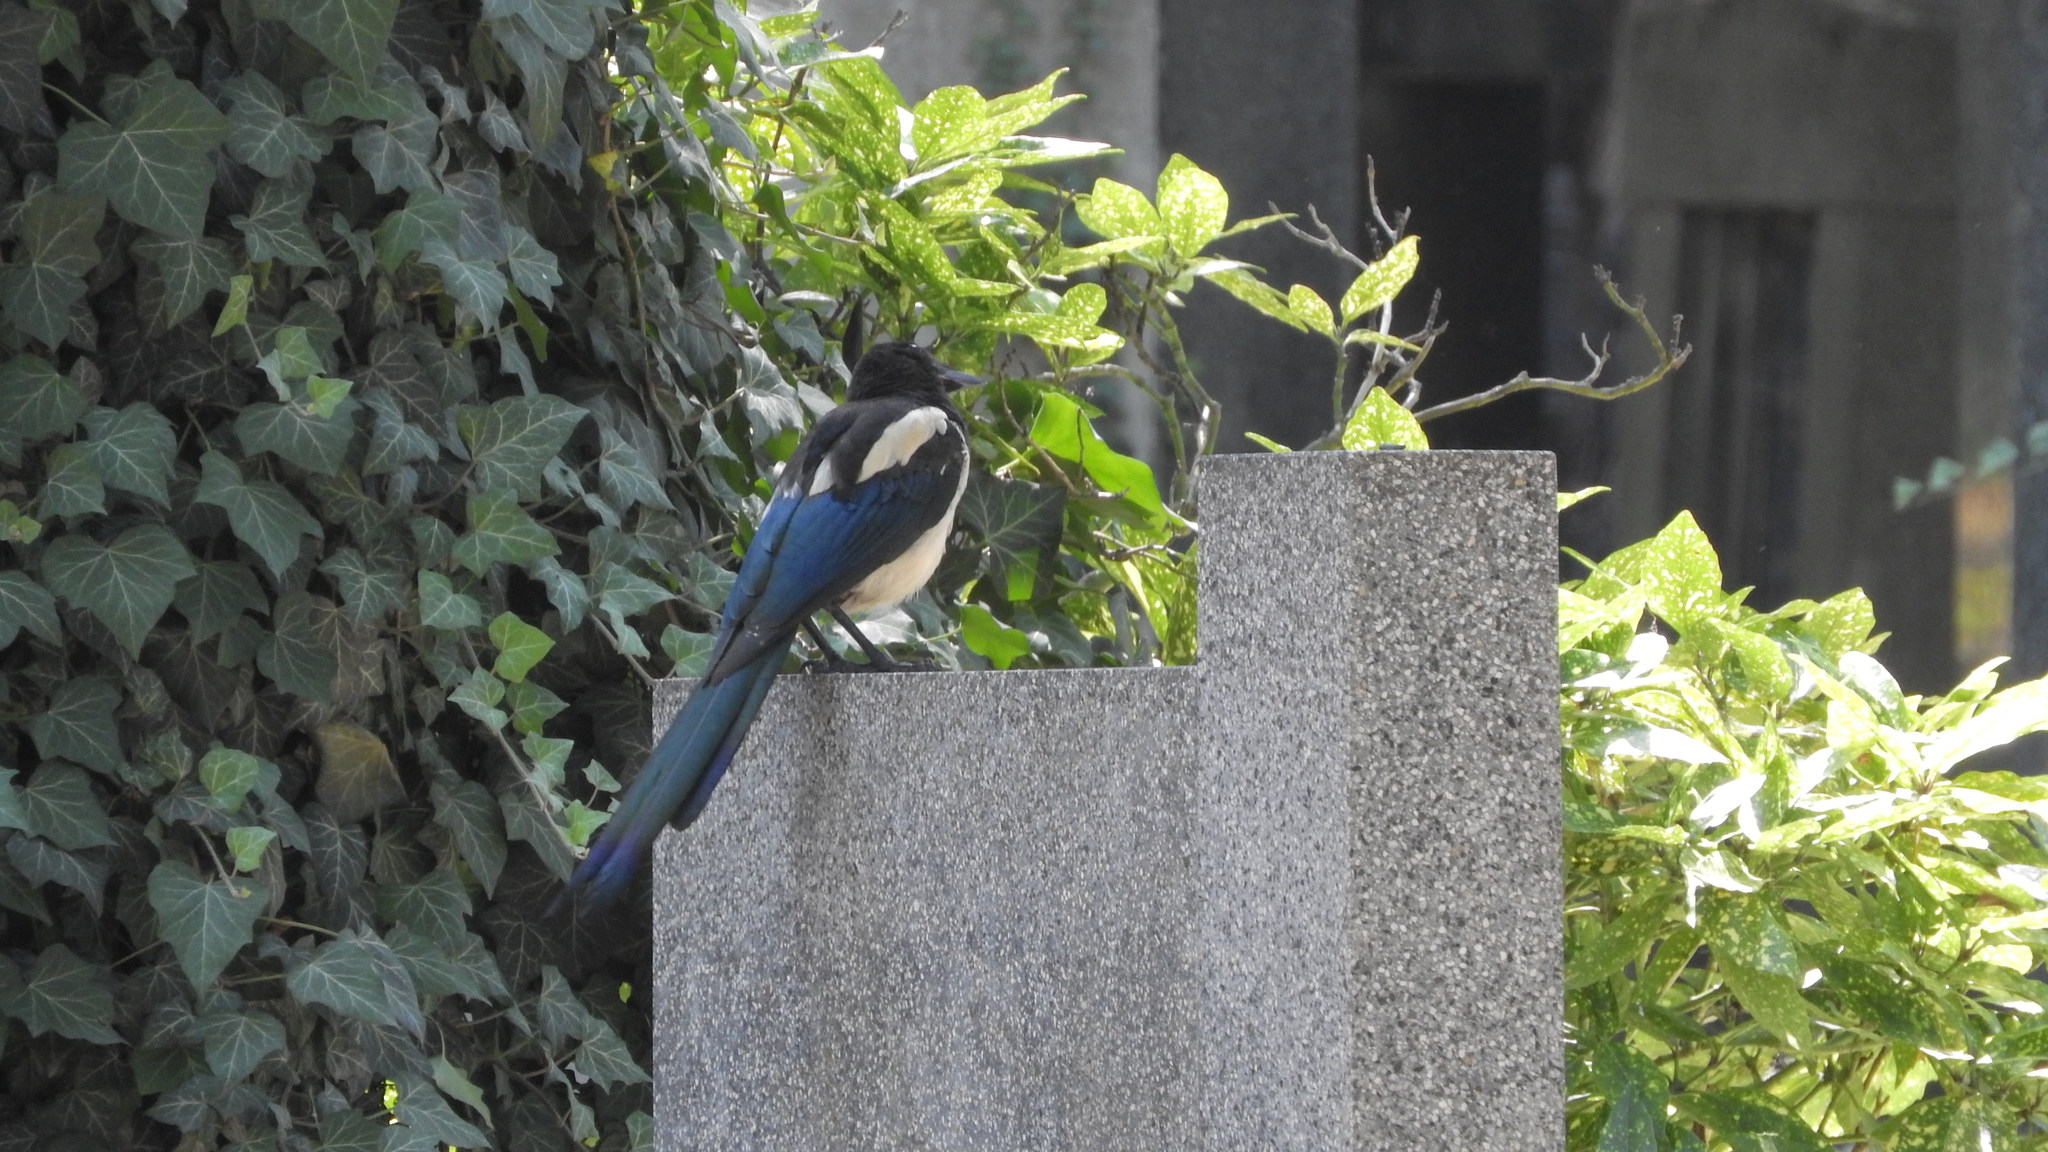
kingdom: Animalia
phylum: Chordata
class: Aves
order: Passeriformes
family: Corvidae
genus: Pica
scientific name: Pica pica
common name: Eurasian magpie
